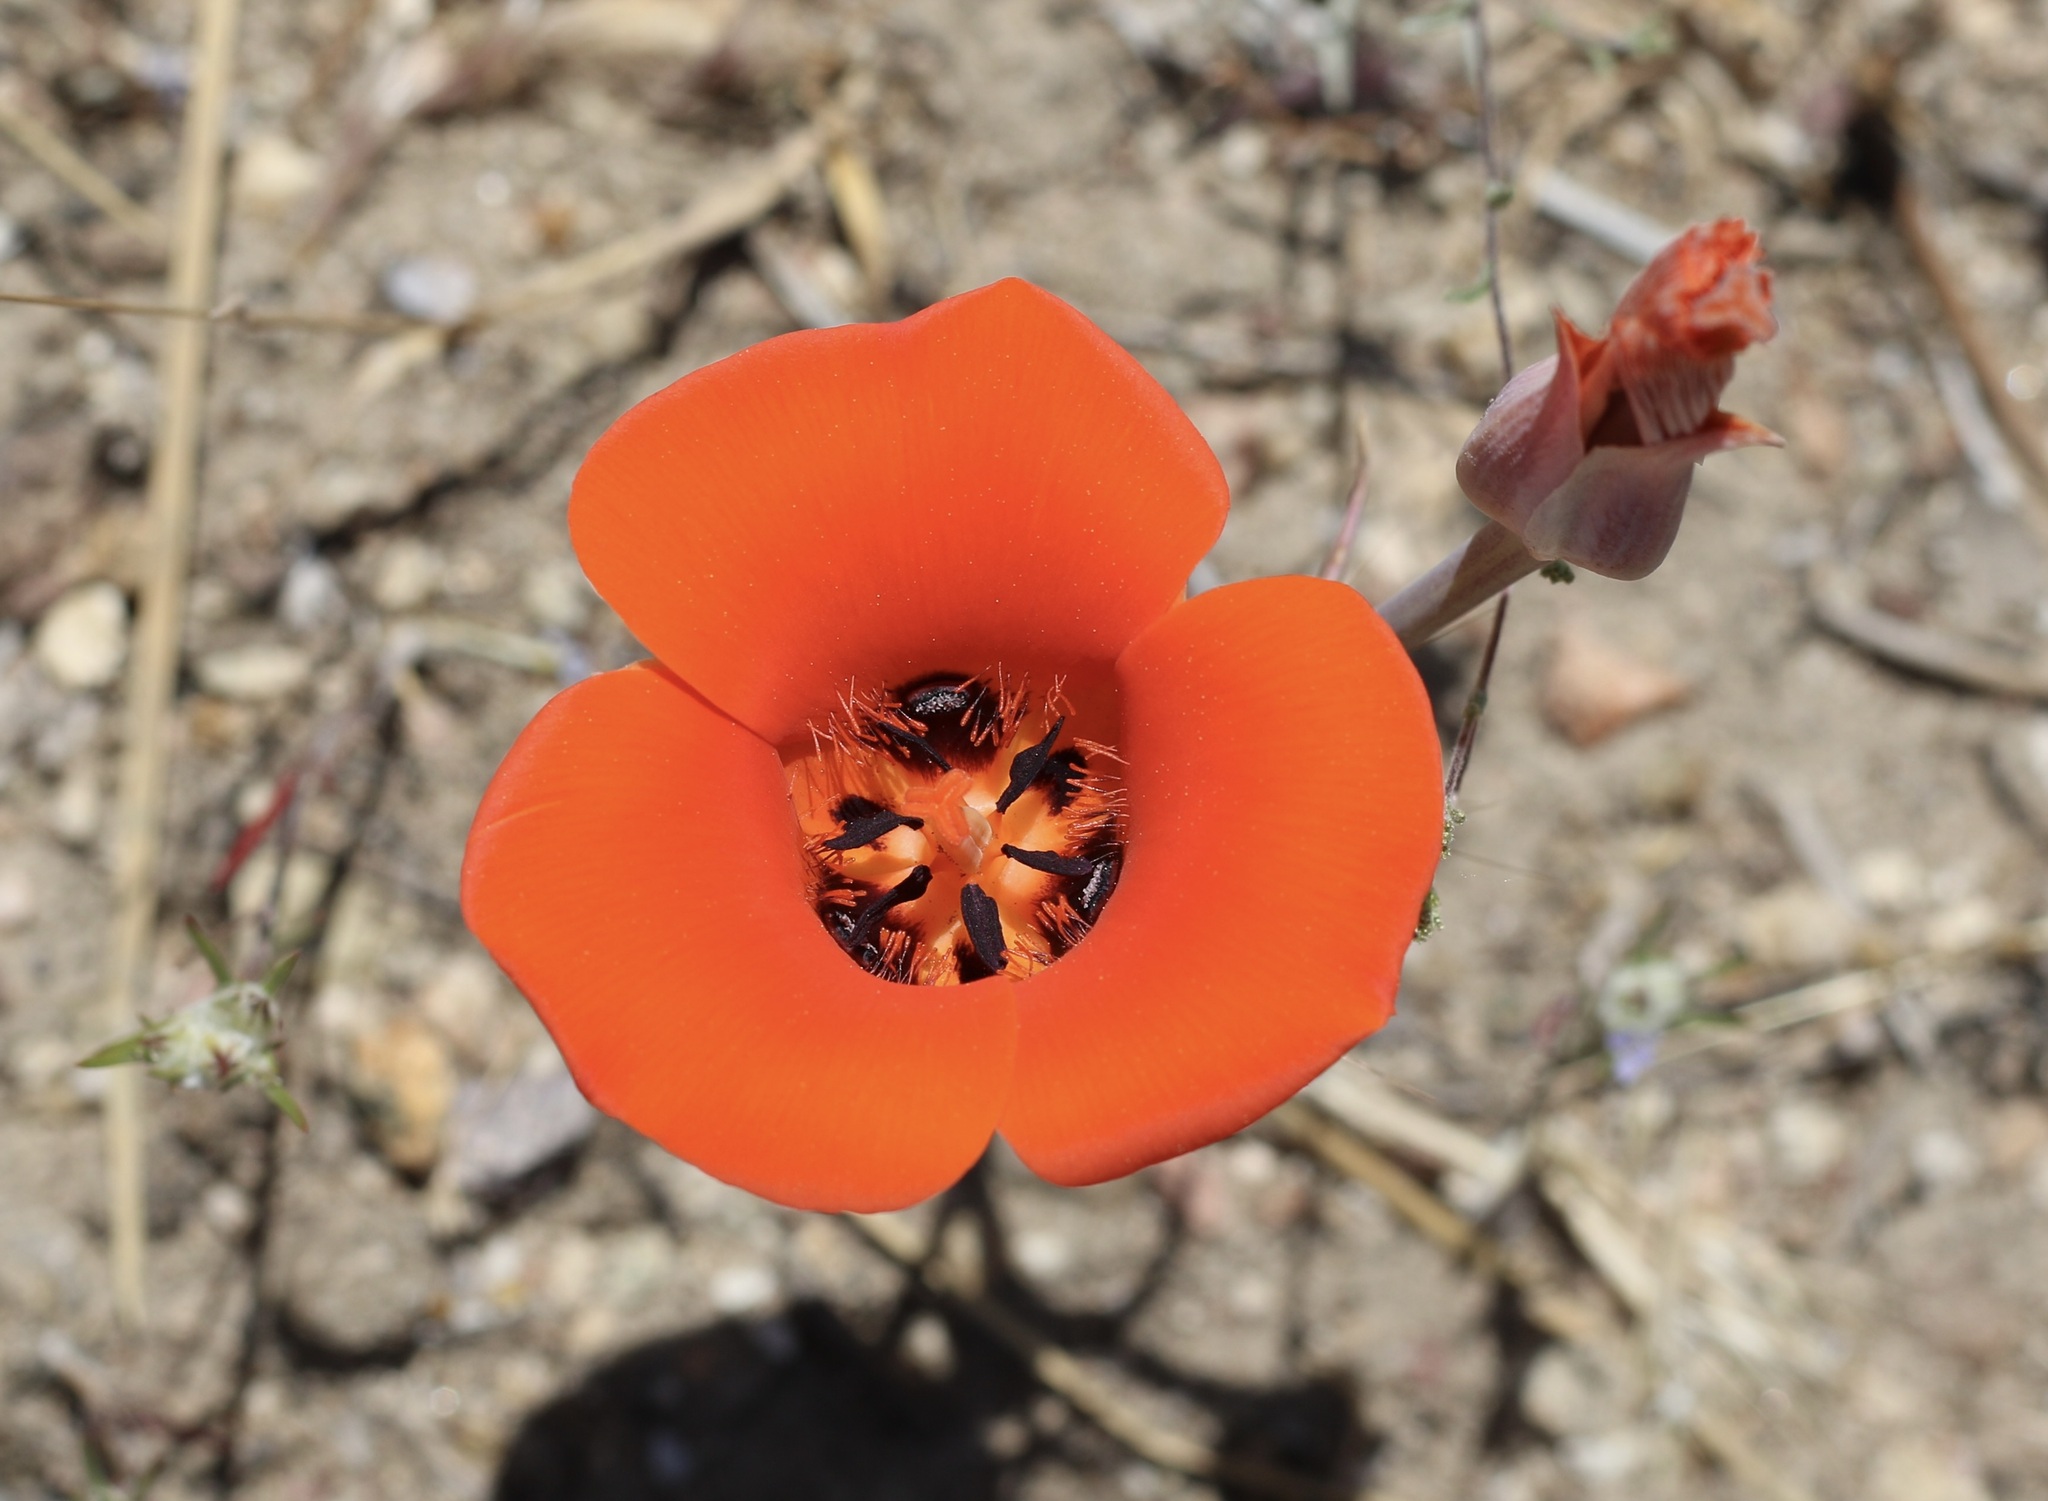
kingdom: Plantae
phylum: Tracheophyta
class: Liliopsida
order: Liliales
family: Liliaceae
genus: Calochortus
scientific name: Calochortus kennedyi
